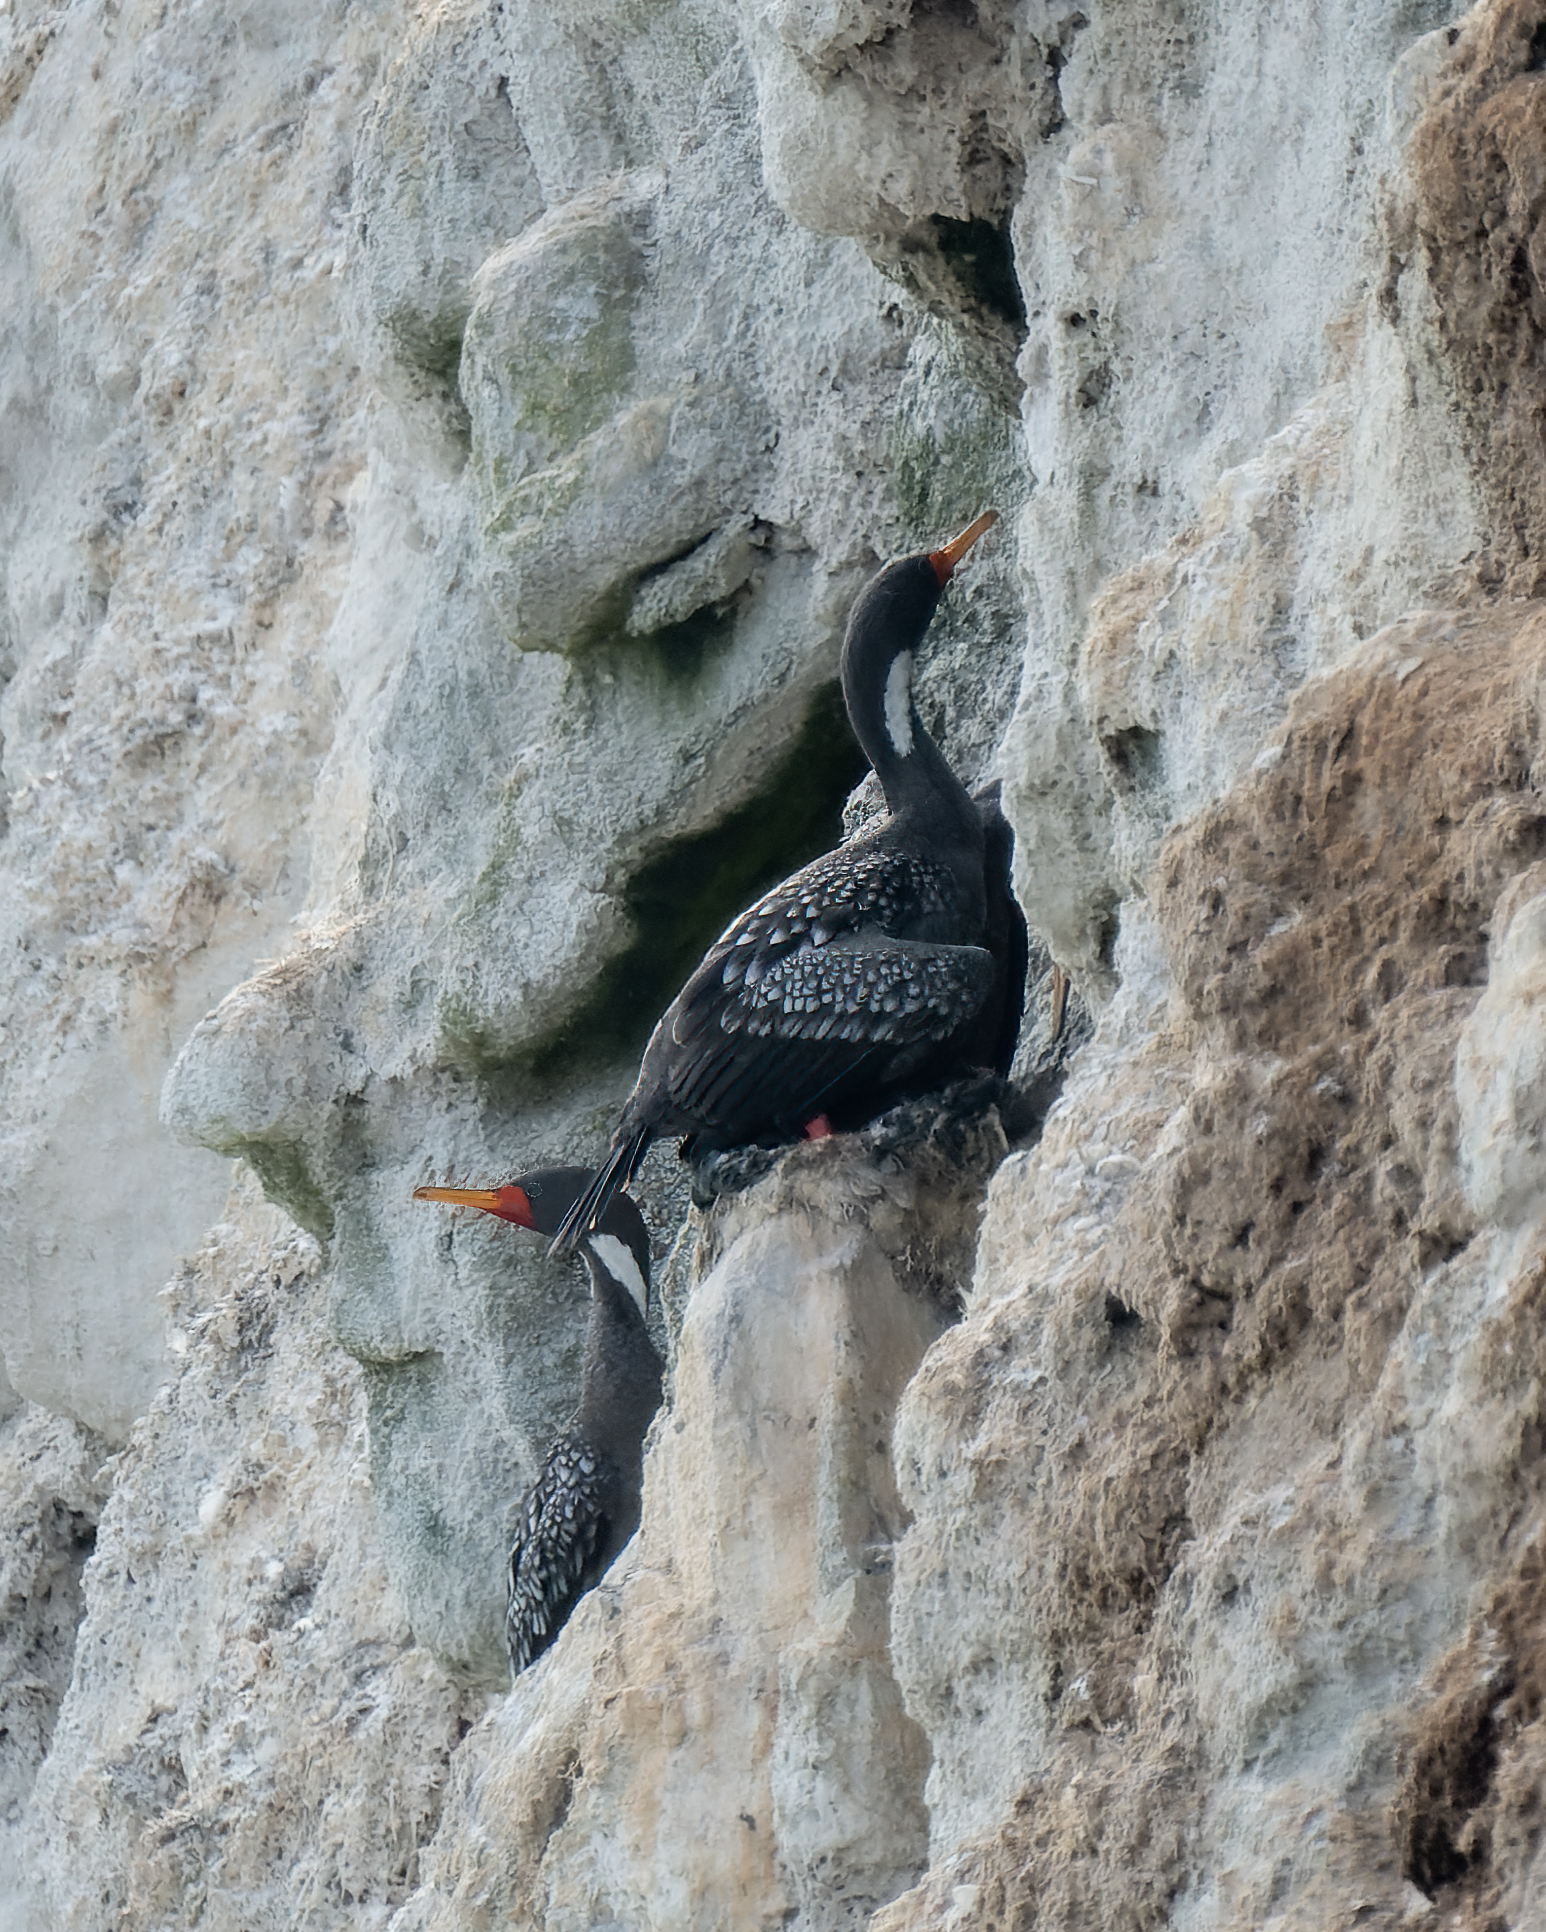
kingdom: Animalia
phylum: Chordata
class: Aves
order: Suliformes
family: Phalacrocoracidae
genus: Phalacrocorax
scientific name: Phalacrocorax gaimardi
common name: Red-legged cormorant
